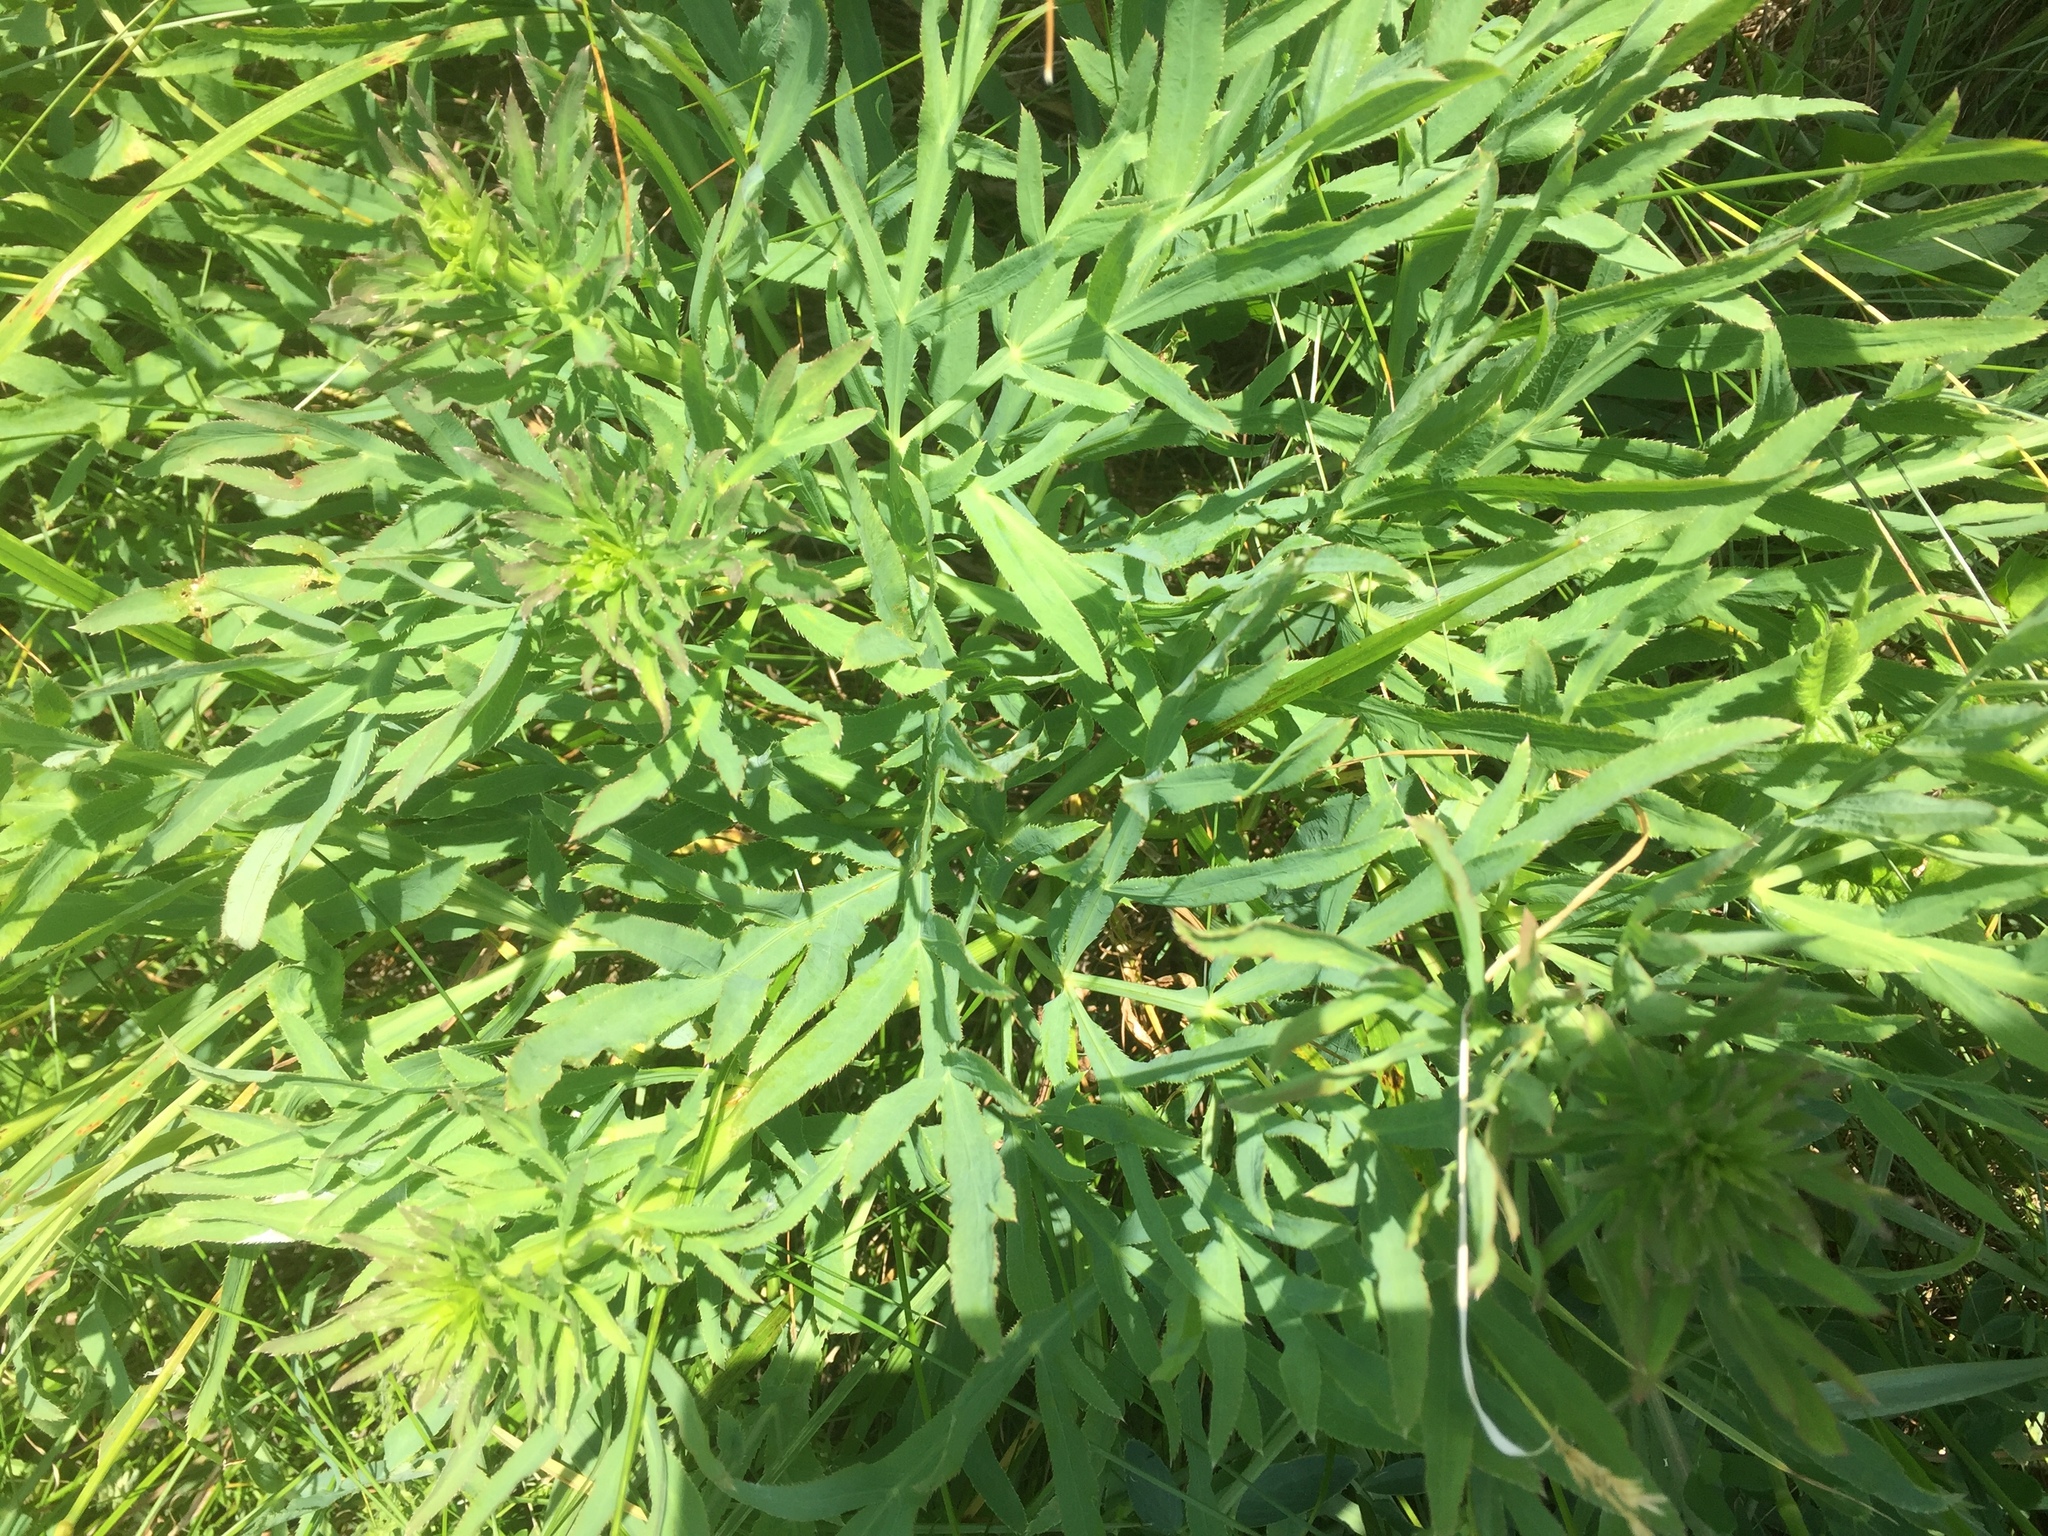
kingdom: Plantae
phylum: Tracheophyta
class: Magnoliopsida
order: Apiales
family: Apiaceae
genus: Falcaria
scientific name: Falcaria vulgaris
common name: Longleaf
